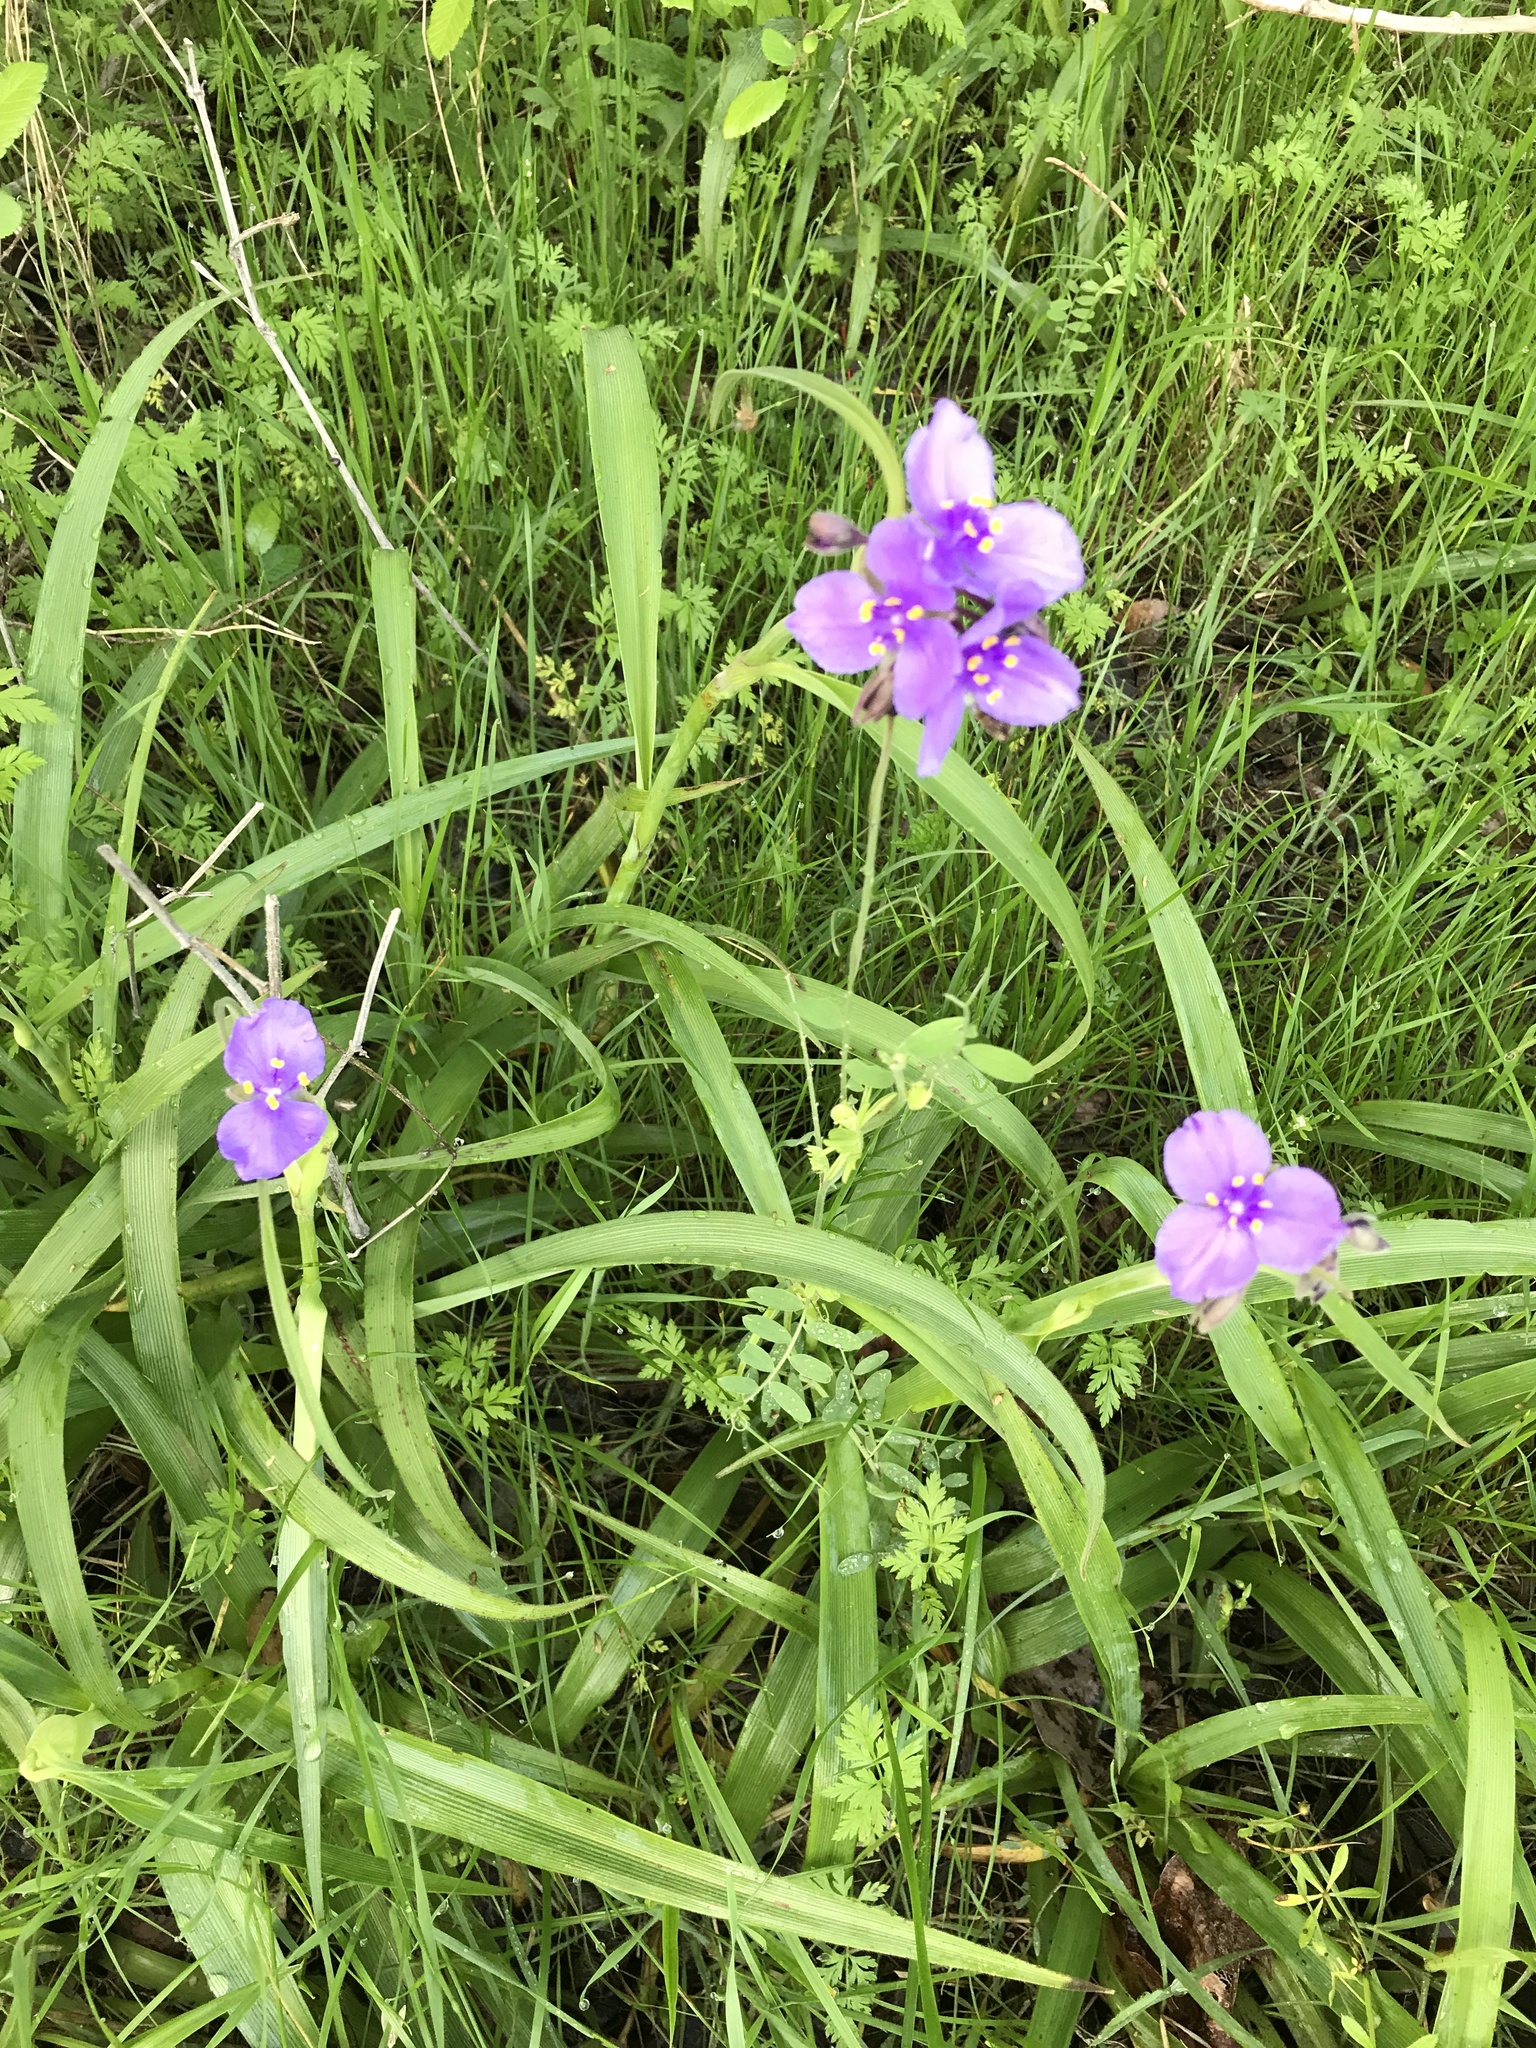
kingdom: Plantae
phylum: Tracheophyta
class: Liliopsida
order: Commelinales
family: Commelinaceae
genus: Tradescantia
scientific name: Tradescantia gigantea
